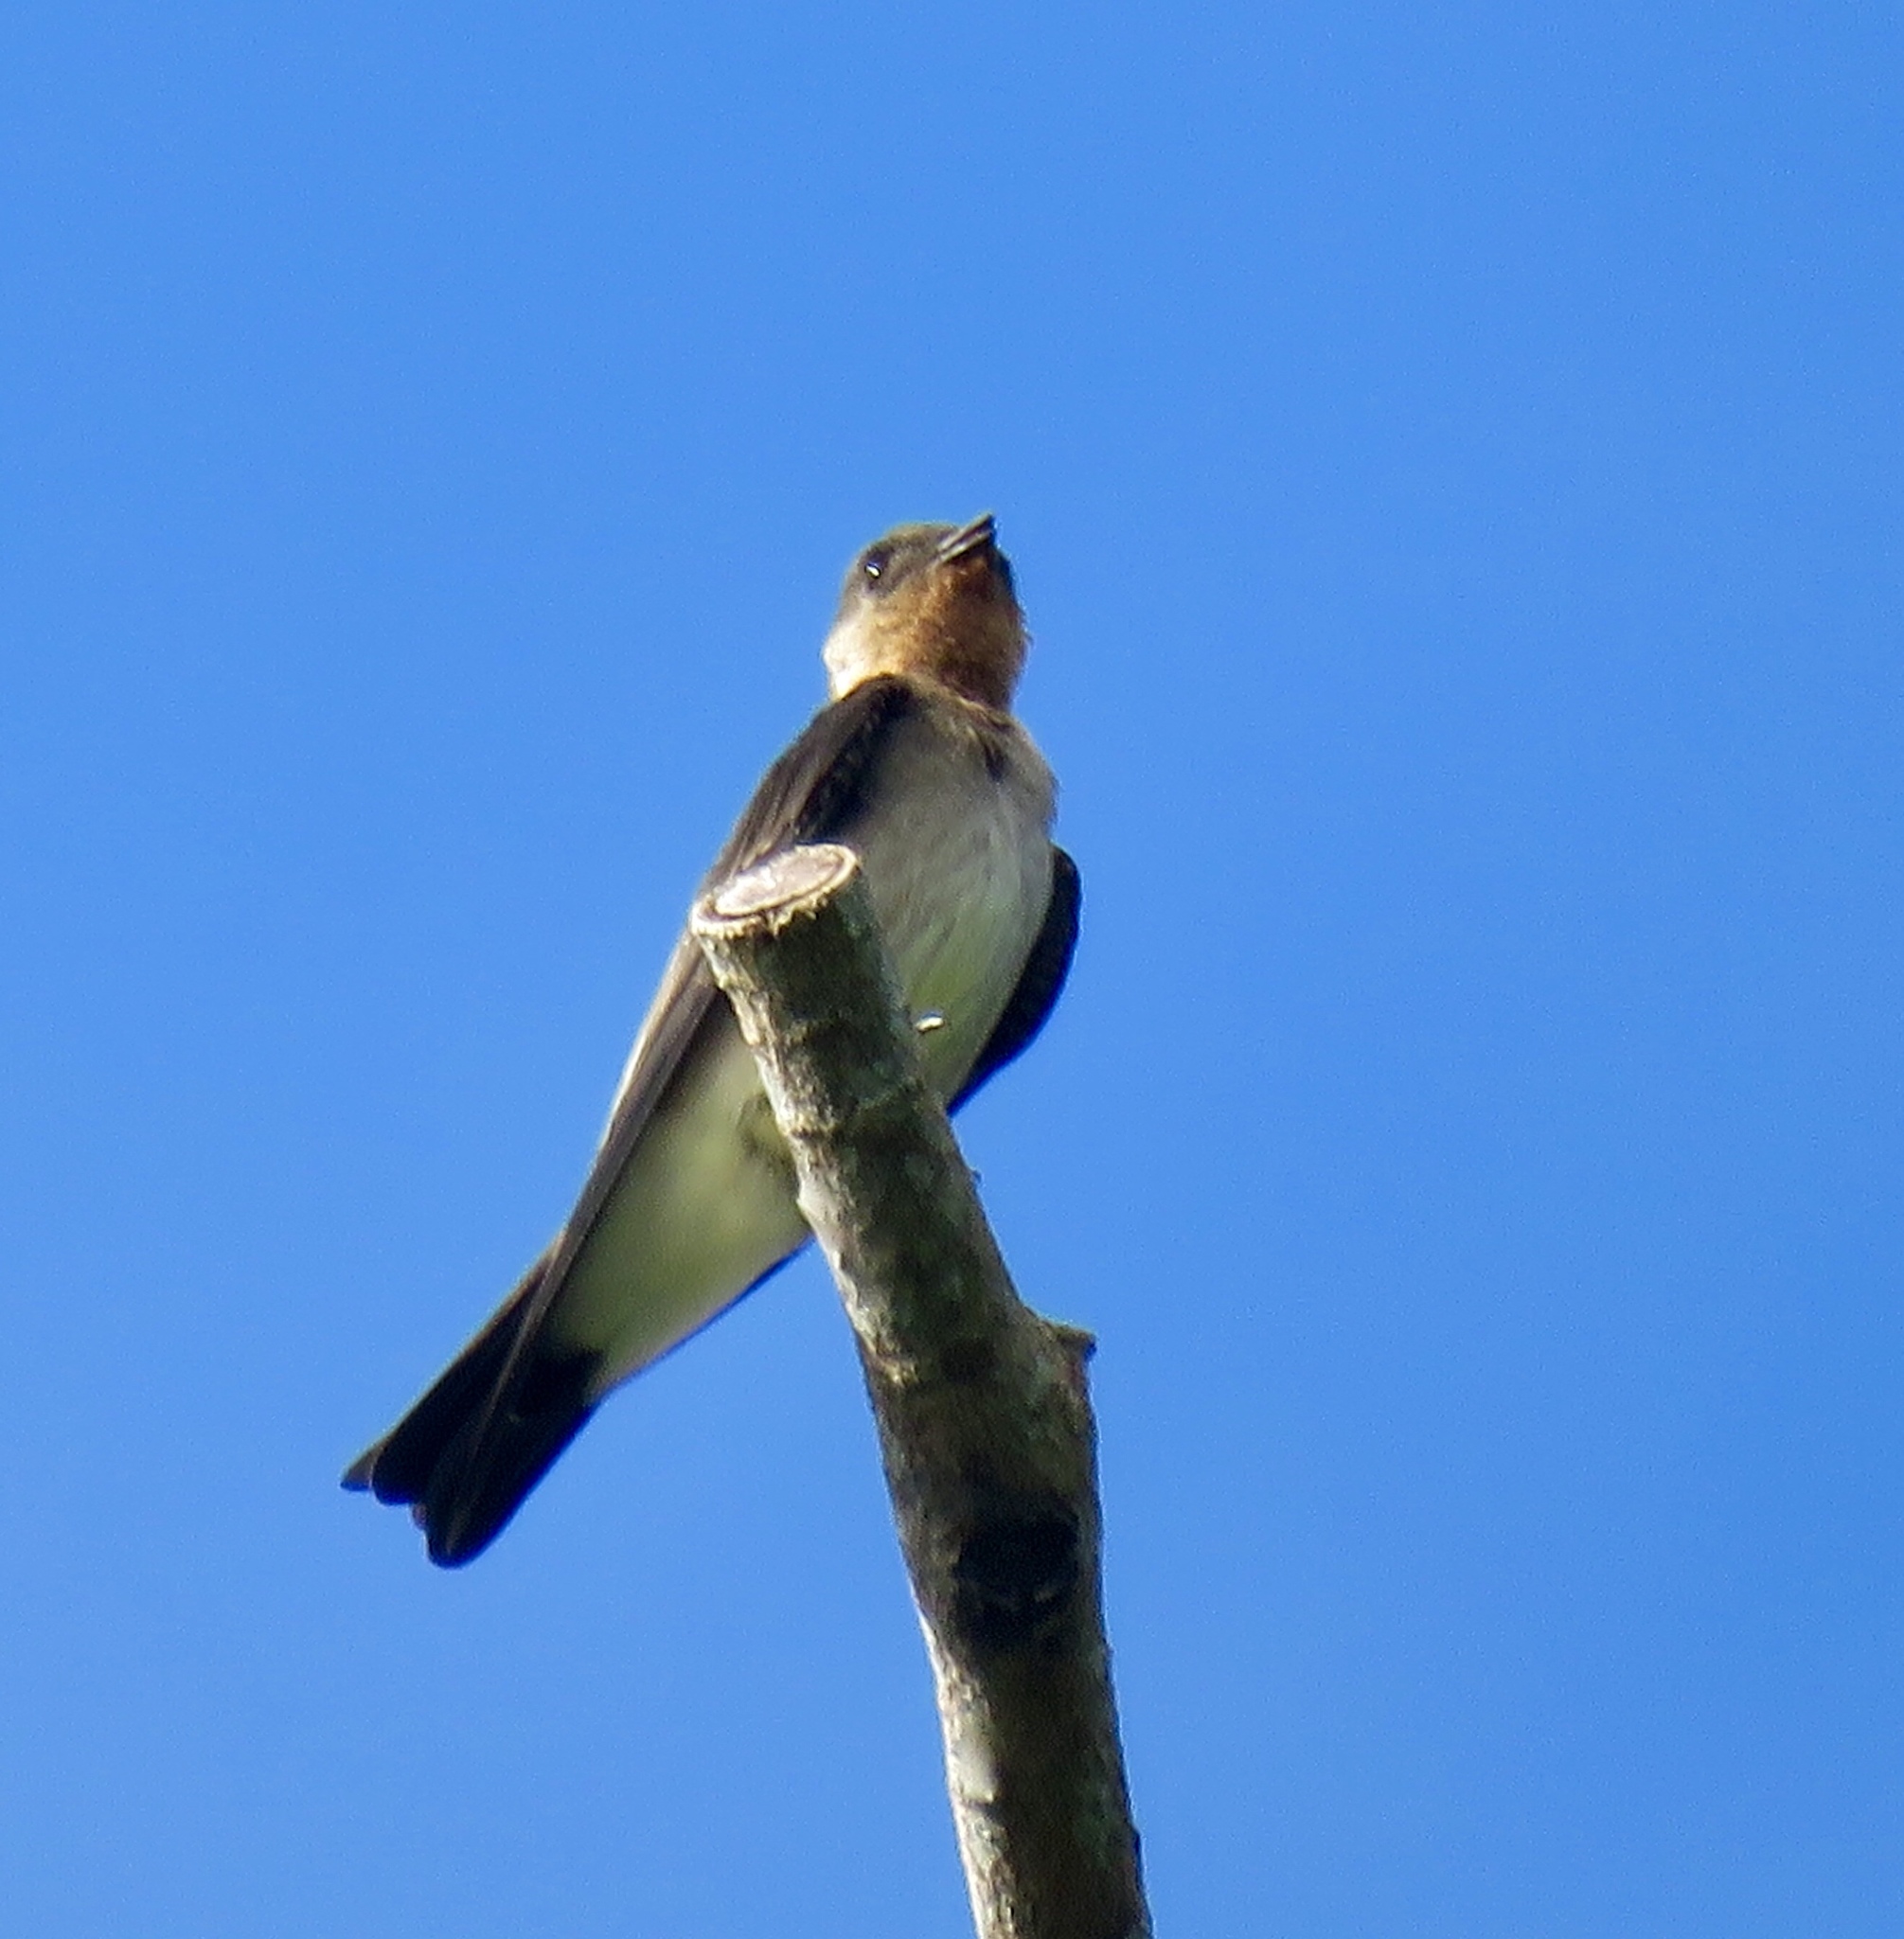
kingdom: Animalia
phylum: Chordata
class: Aves
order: Passeriformes
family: Hirundinidae
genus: Stelgidopteryx
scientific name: Stelgidopteryx ruficollis
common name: Southern rough-winged swallow
